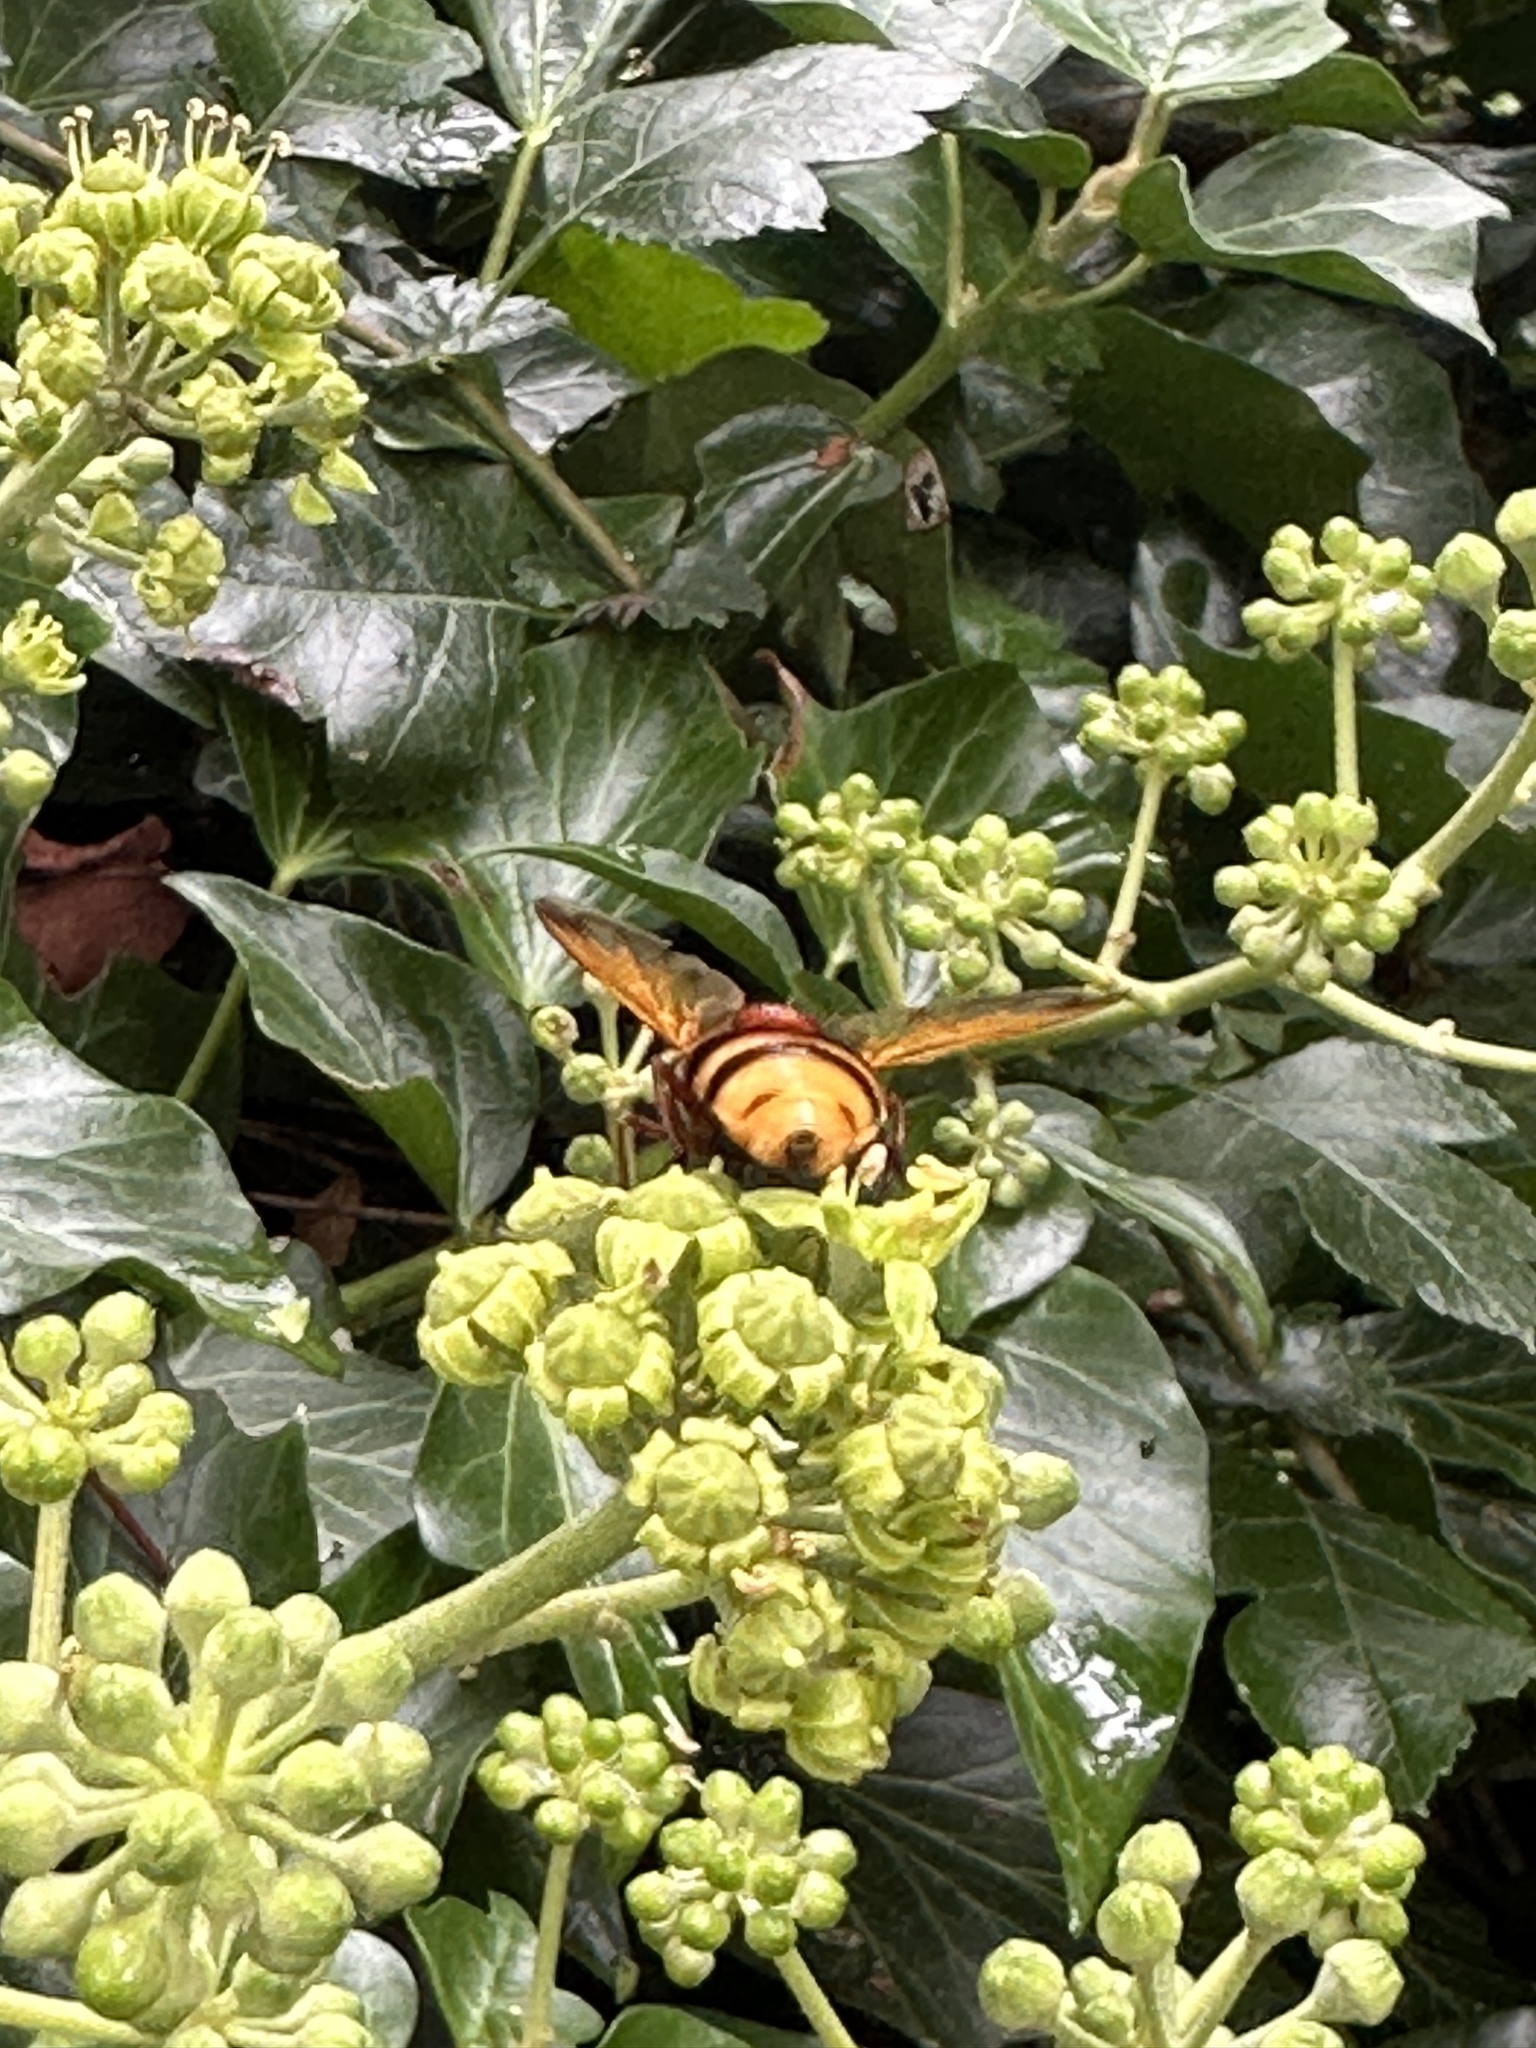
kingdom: Animalia
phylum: Arthropoda
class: Insecta
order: Diptera
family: Syrphidae
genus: Volucella
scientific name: Volucella zonaria
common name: Hornet hoverfly
